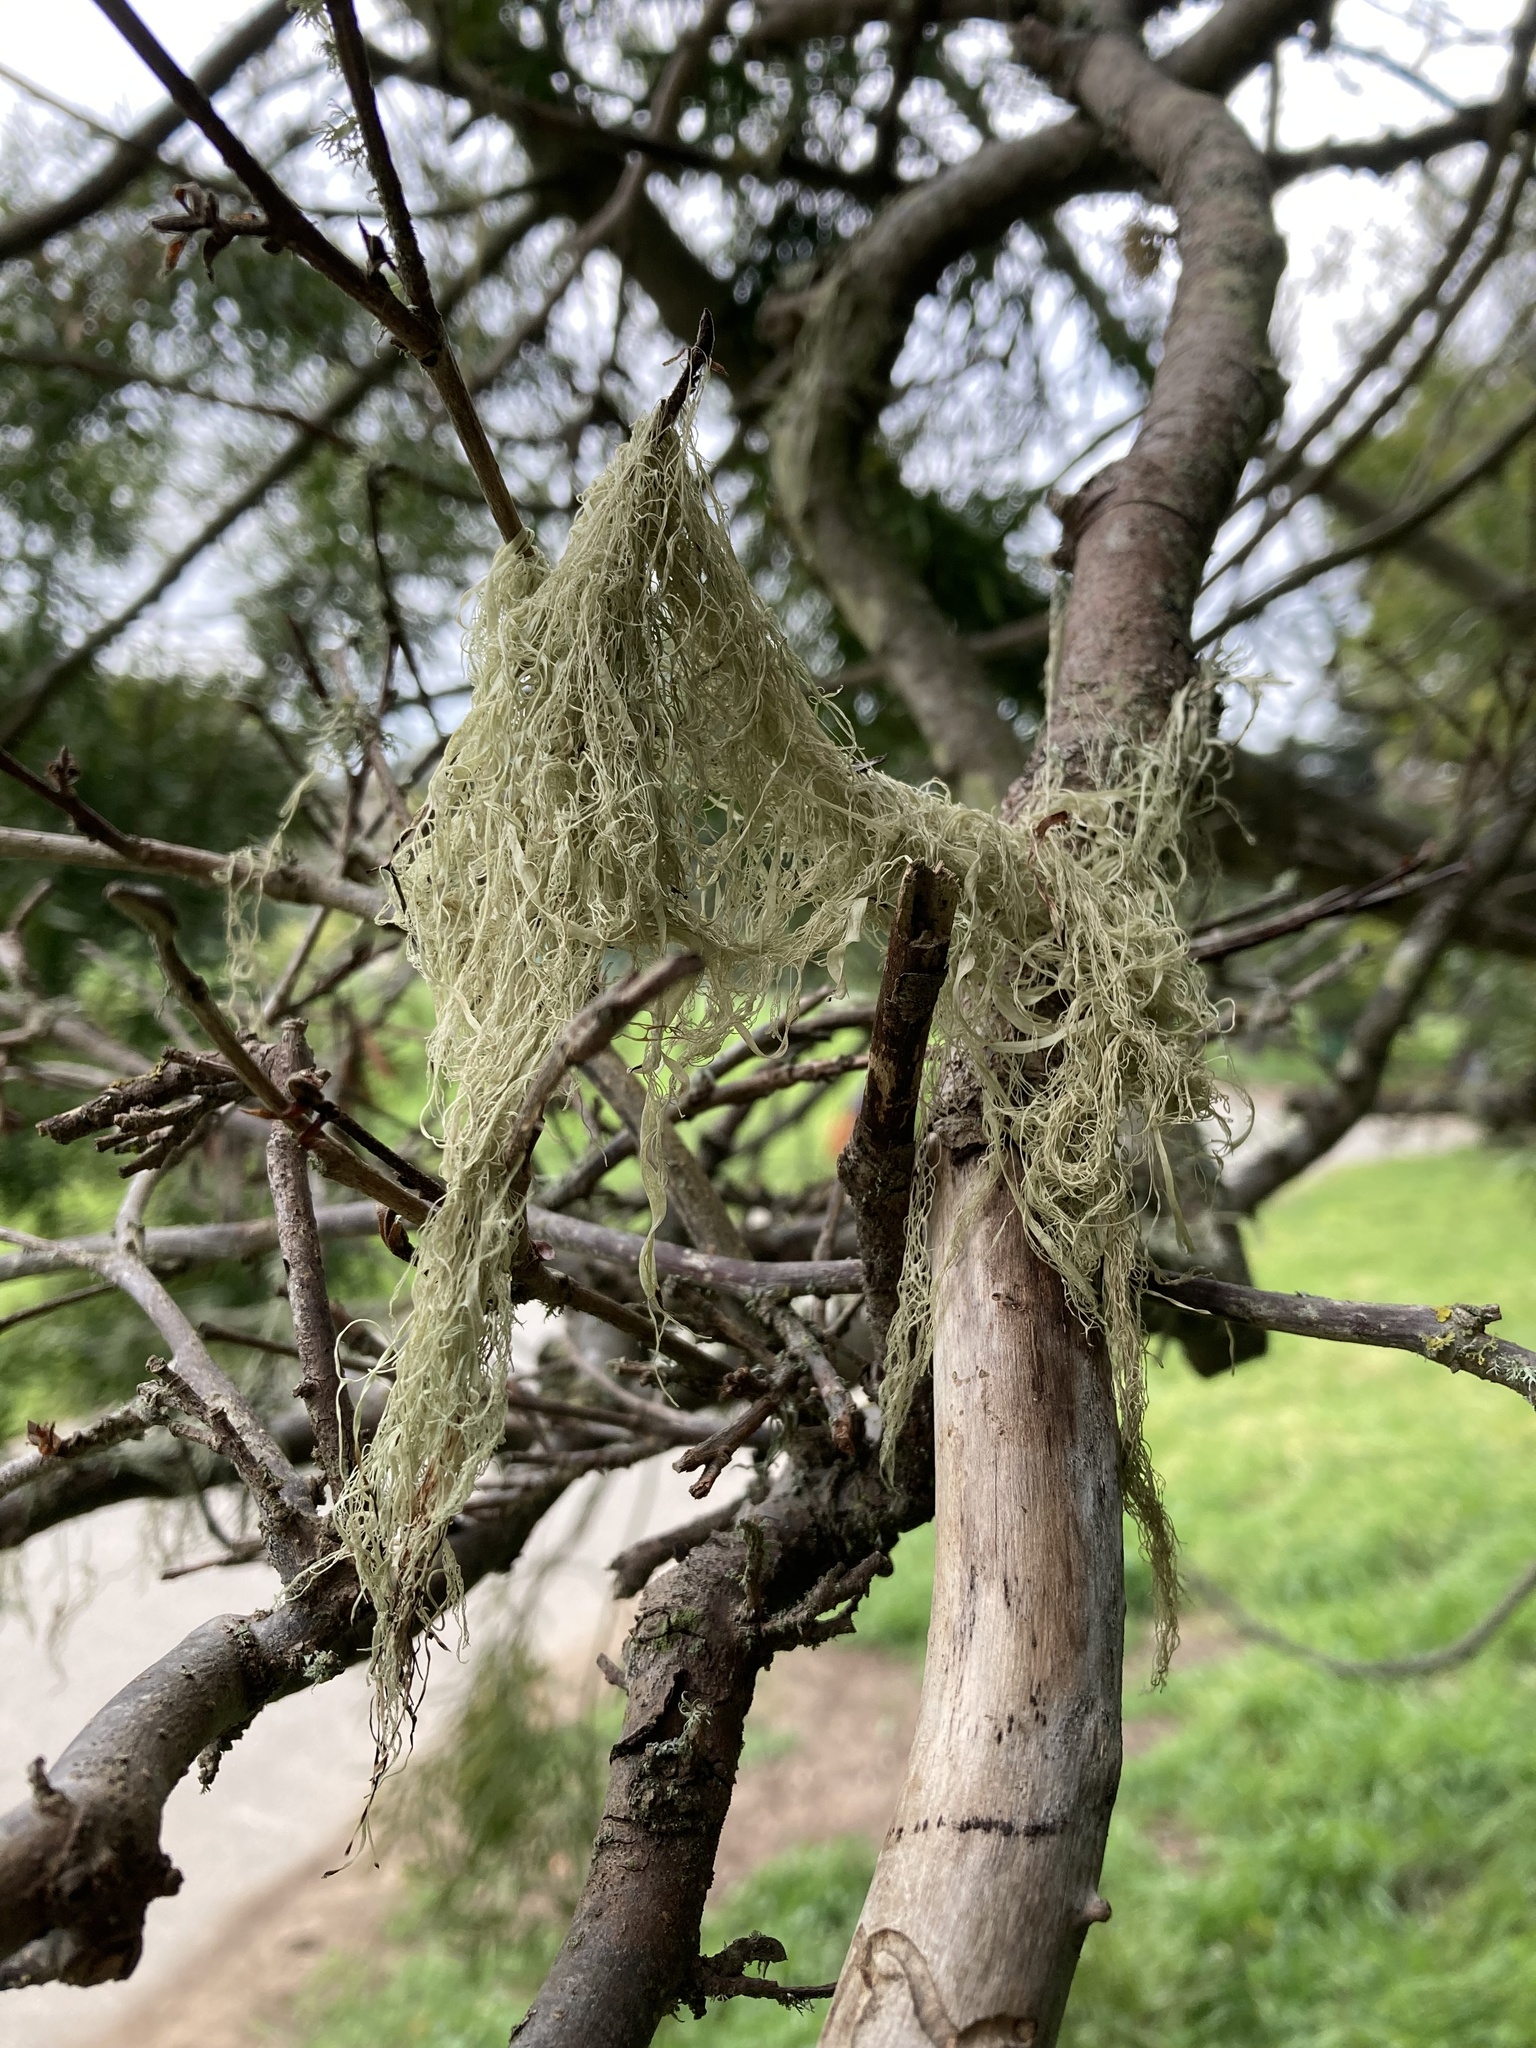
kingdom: Fungi
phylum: Ascomycota
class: Lecanoromycetes
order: Lecanorales
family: Ramalinaceae
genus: Ramalina
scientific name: Ramalina menziesii
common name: Lace lichen
